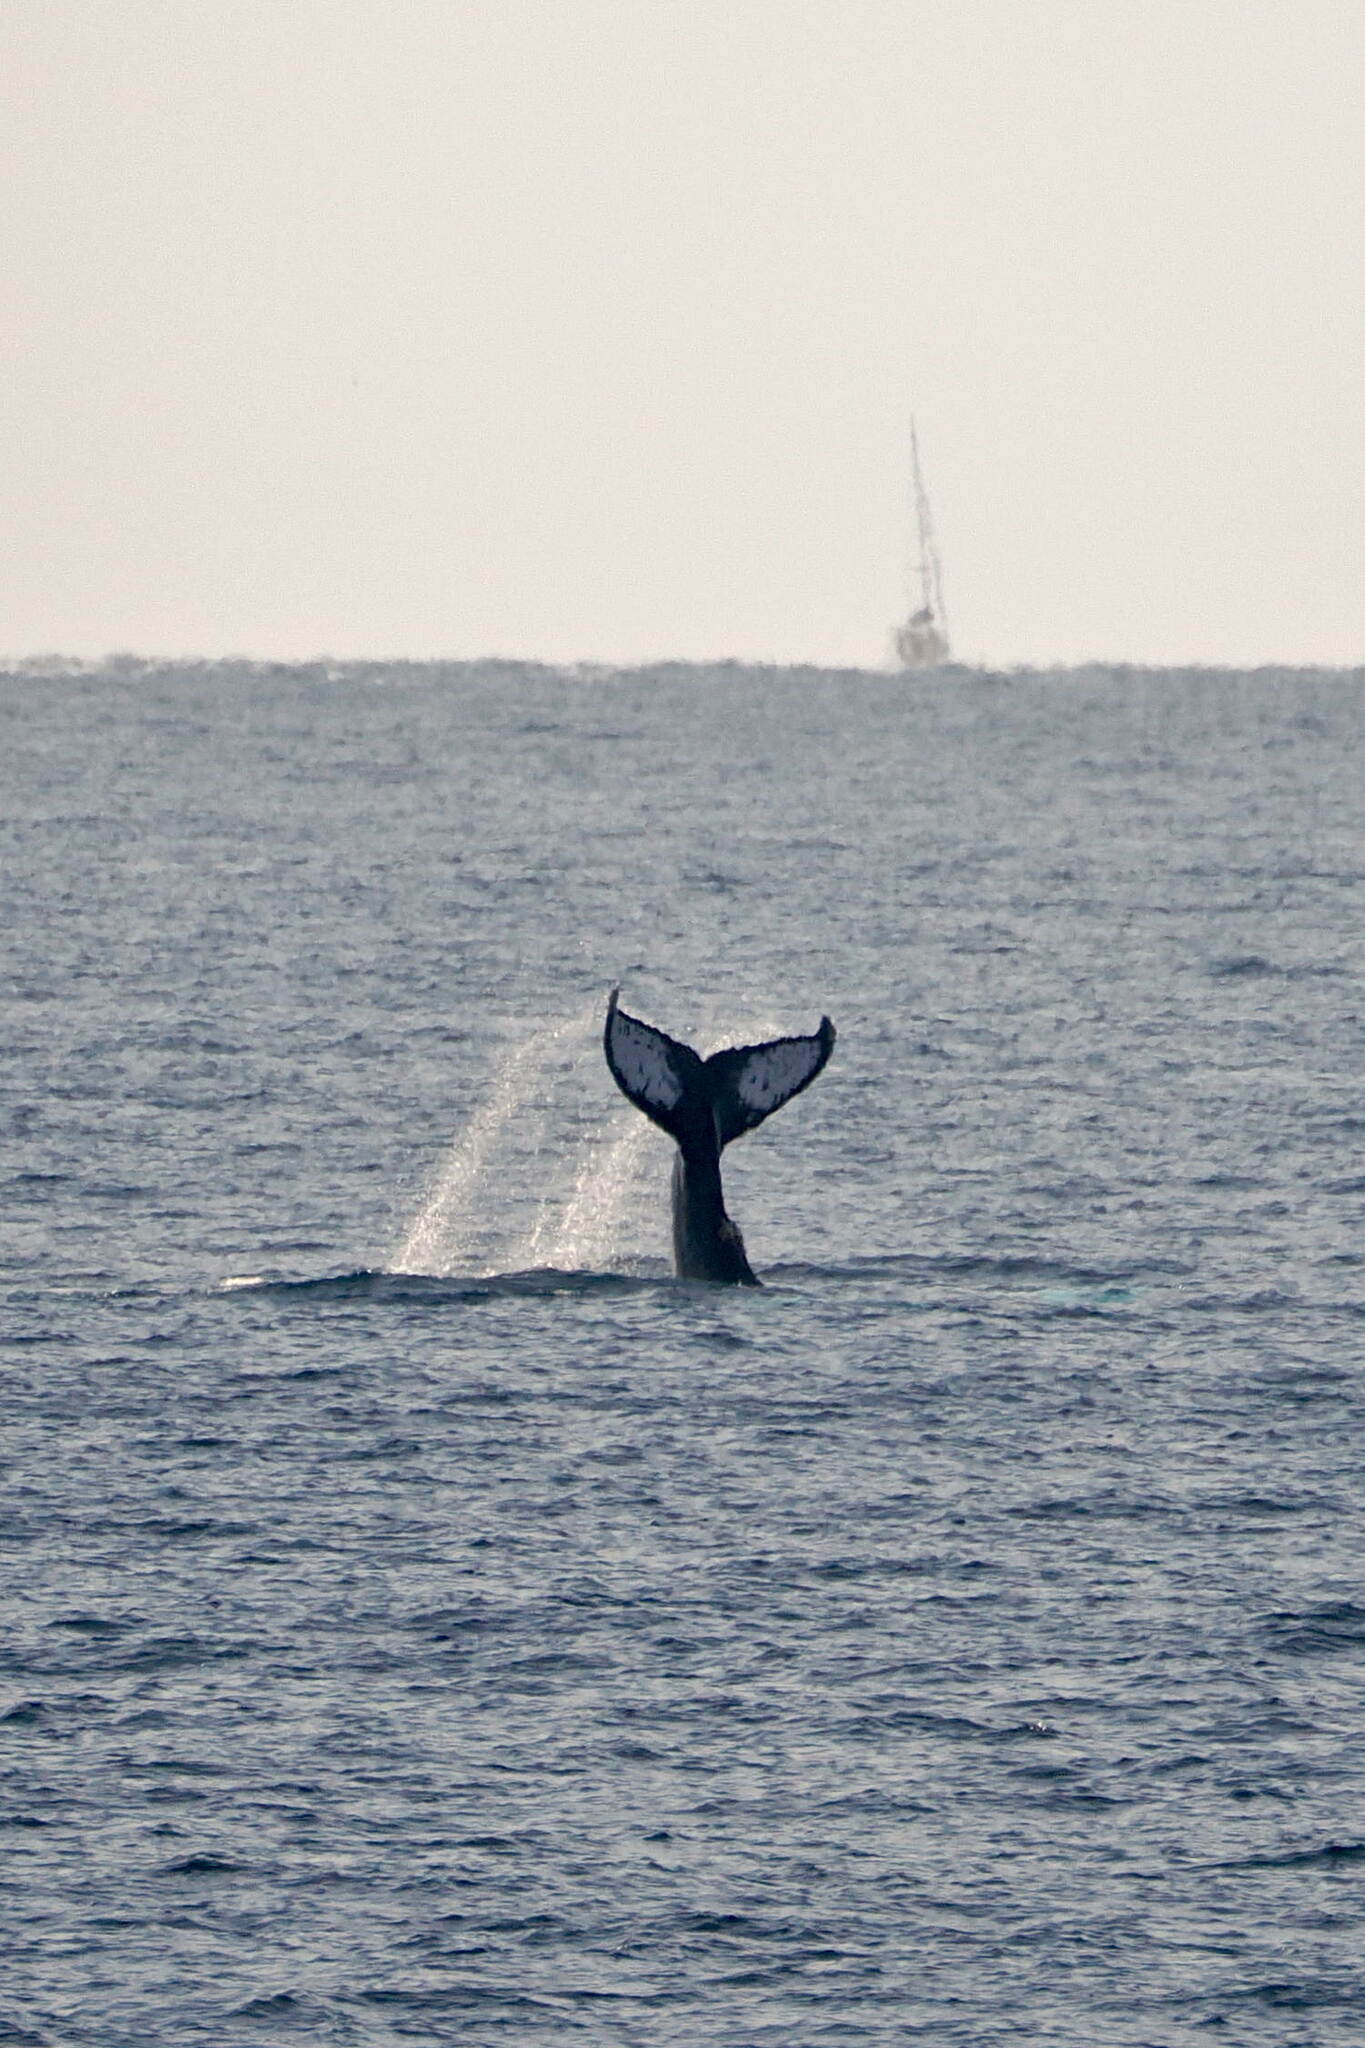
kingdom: Animalia
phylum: Chordata
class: Mammalia
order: Cetacea
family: Balaenopteridae
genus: Megaptera
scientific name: Megaptera novaeangliae
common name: Humpback whale
